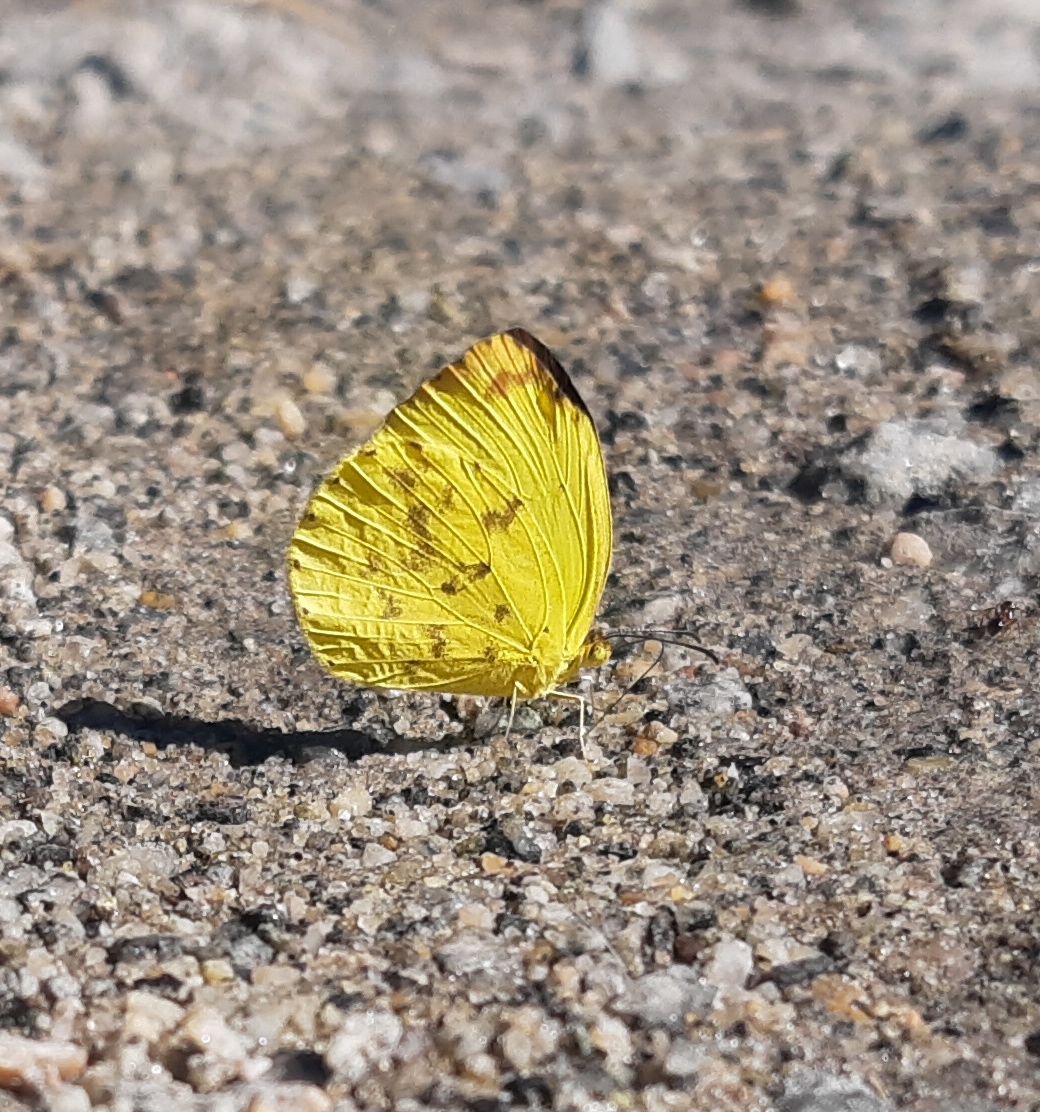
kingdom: Animalia
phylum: Arthropoda
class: Insecta
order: Lepidoptera
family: Pieridae
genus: Pyrisitia
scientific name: Pyrisitia leuce
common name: Hall's sulfur
